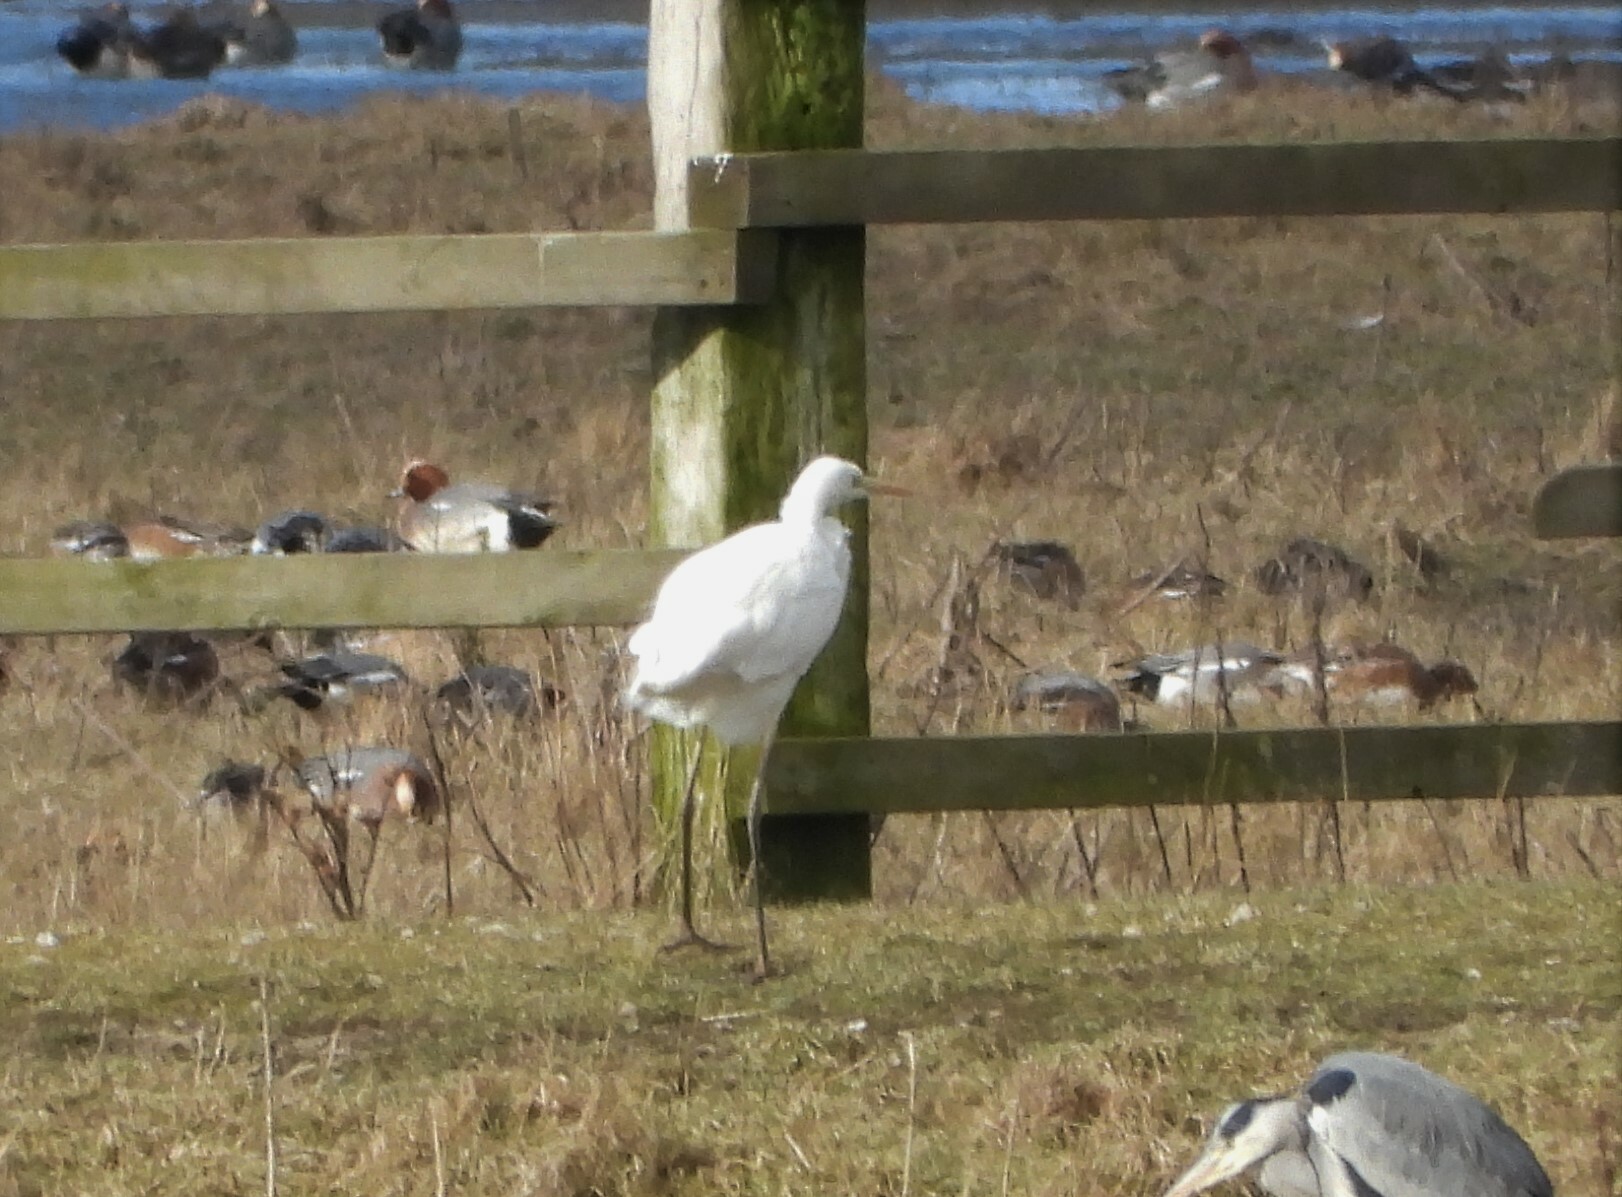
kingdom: Animalia
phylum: Chordata
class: Aves
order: Pelecaniformes
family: Ardeidae
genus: Ardea
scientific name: Ardea alba
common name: Great egret
